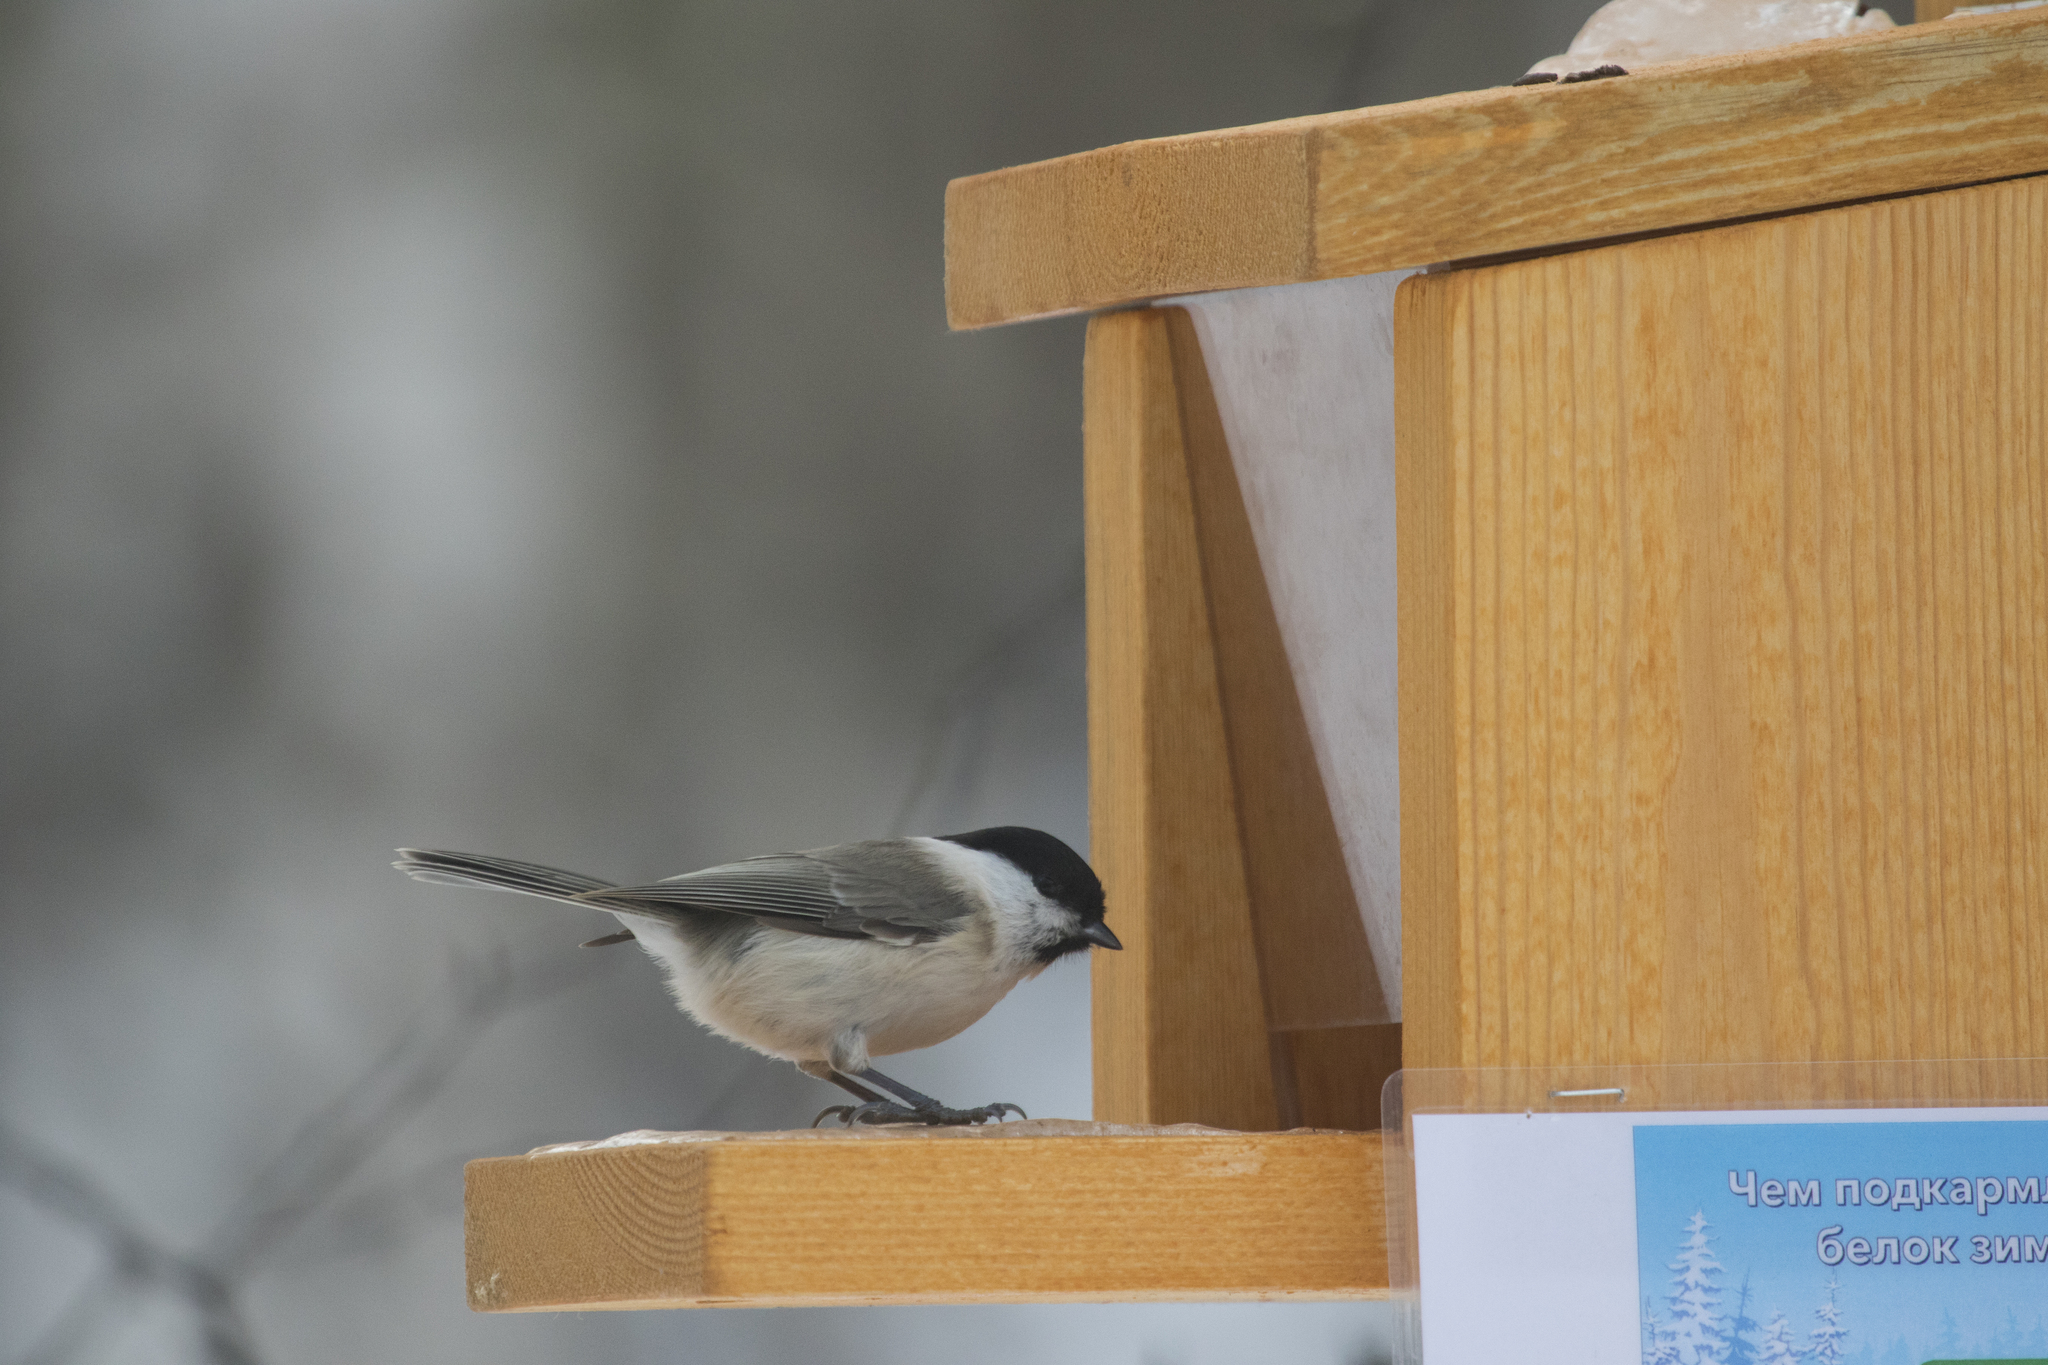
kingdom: Animalia
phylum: Chordata
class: Aves
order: Passeriformes
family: Paridae
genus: Poecile
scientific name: Poecile palustris
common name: Marsh tit
